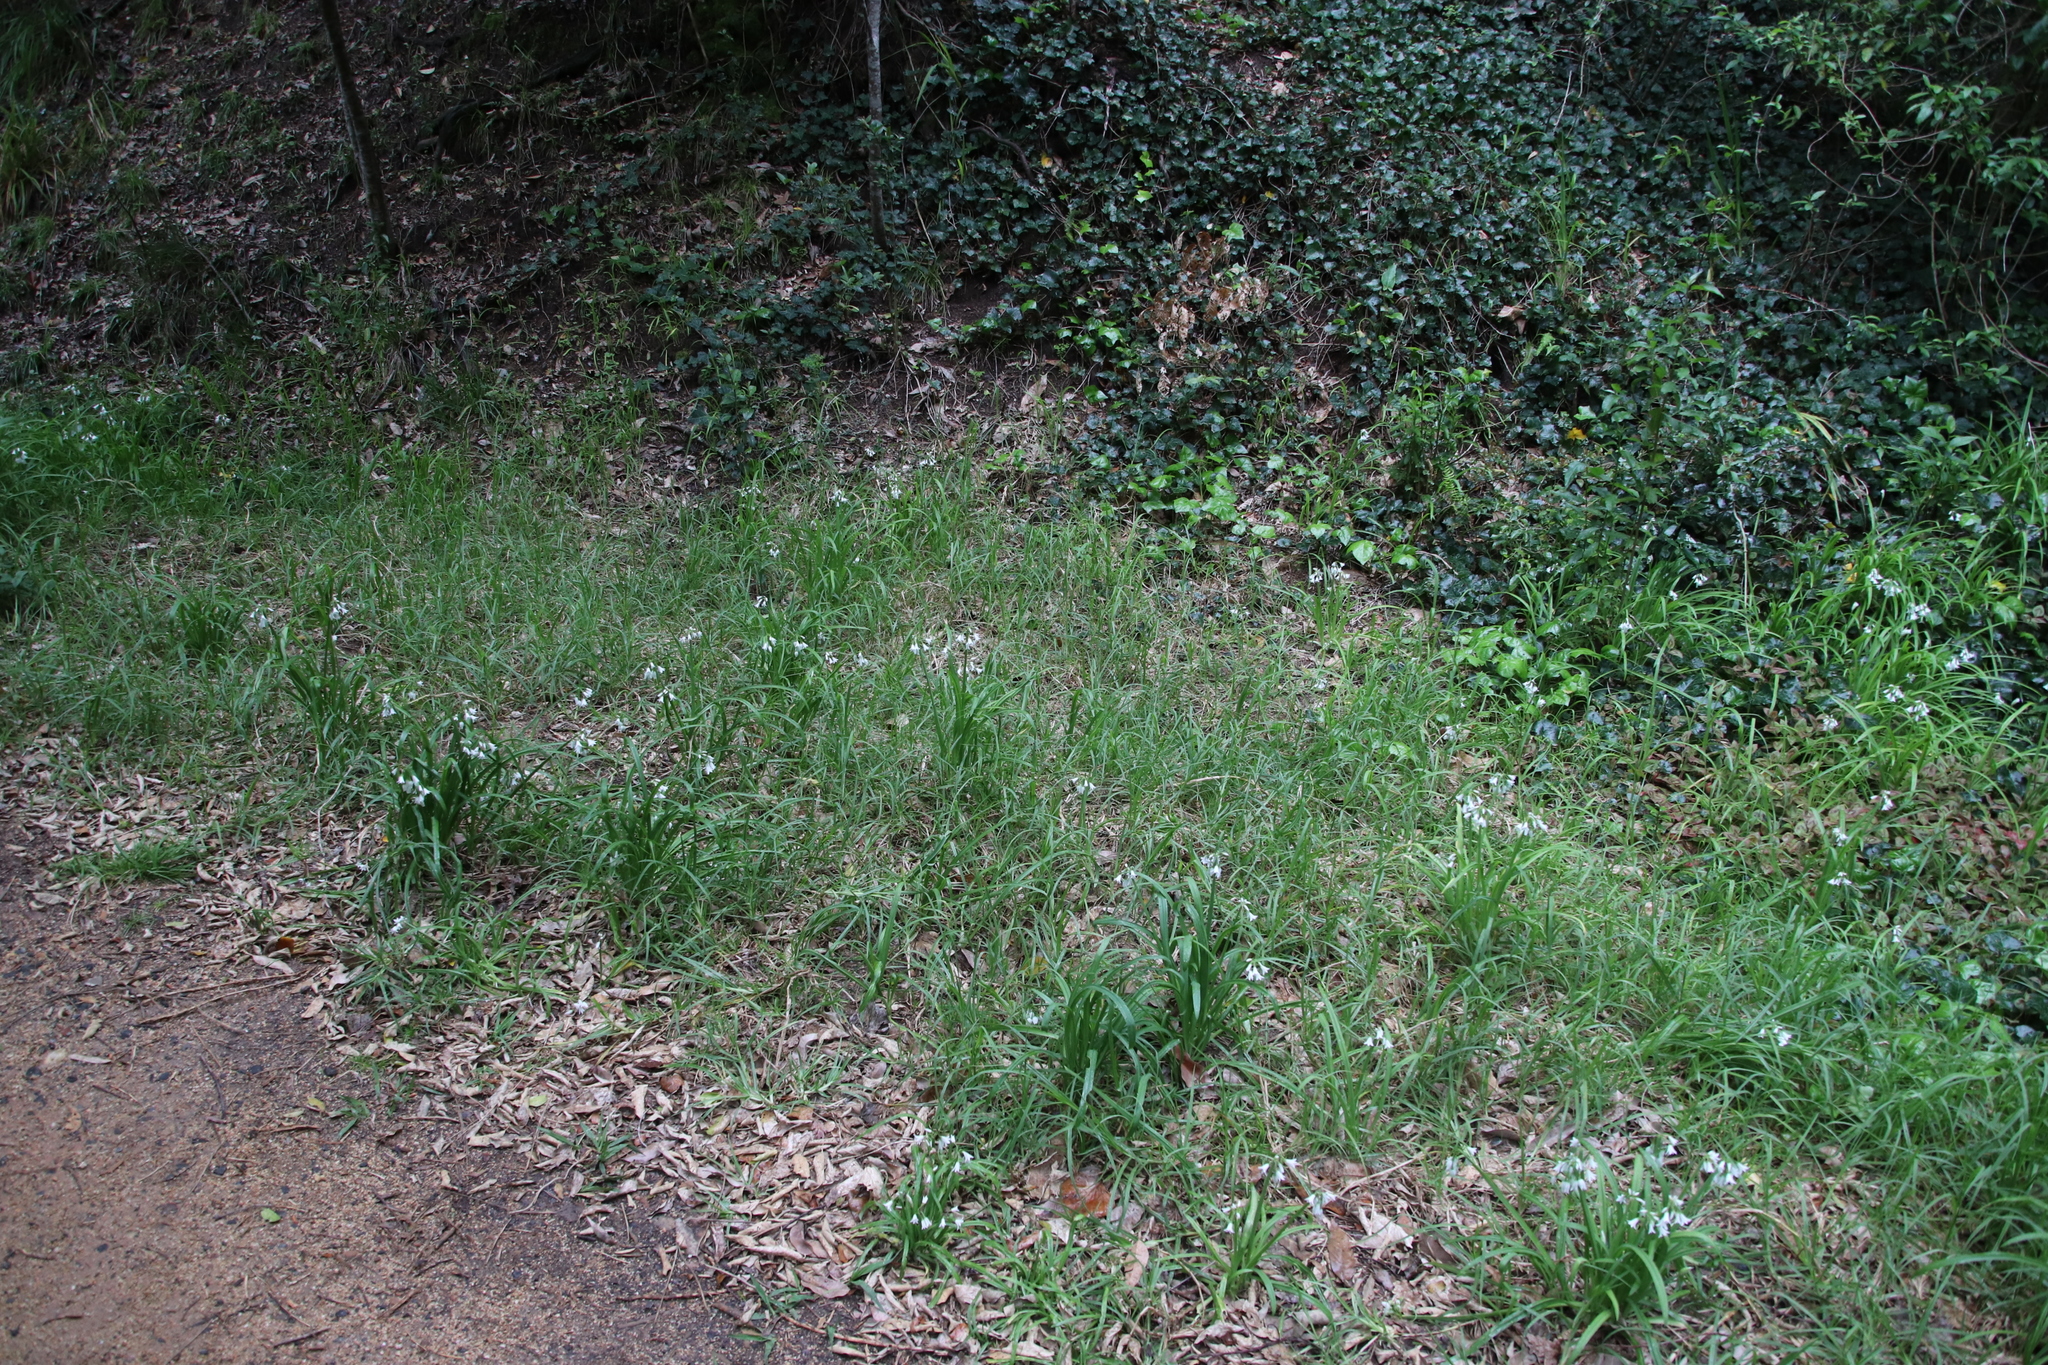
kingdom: Plantae
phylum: Tracheophyta
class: Liliopsida
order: Asparagales
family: Amaryllidaceae
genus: Allium
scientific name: Allium triquetrum
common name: Three-cornered garlic
